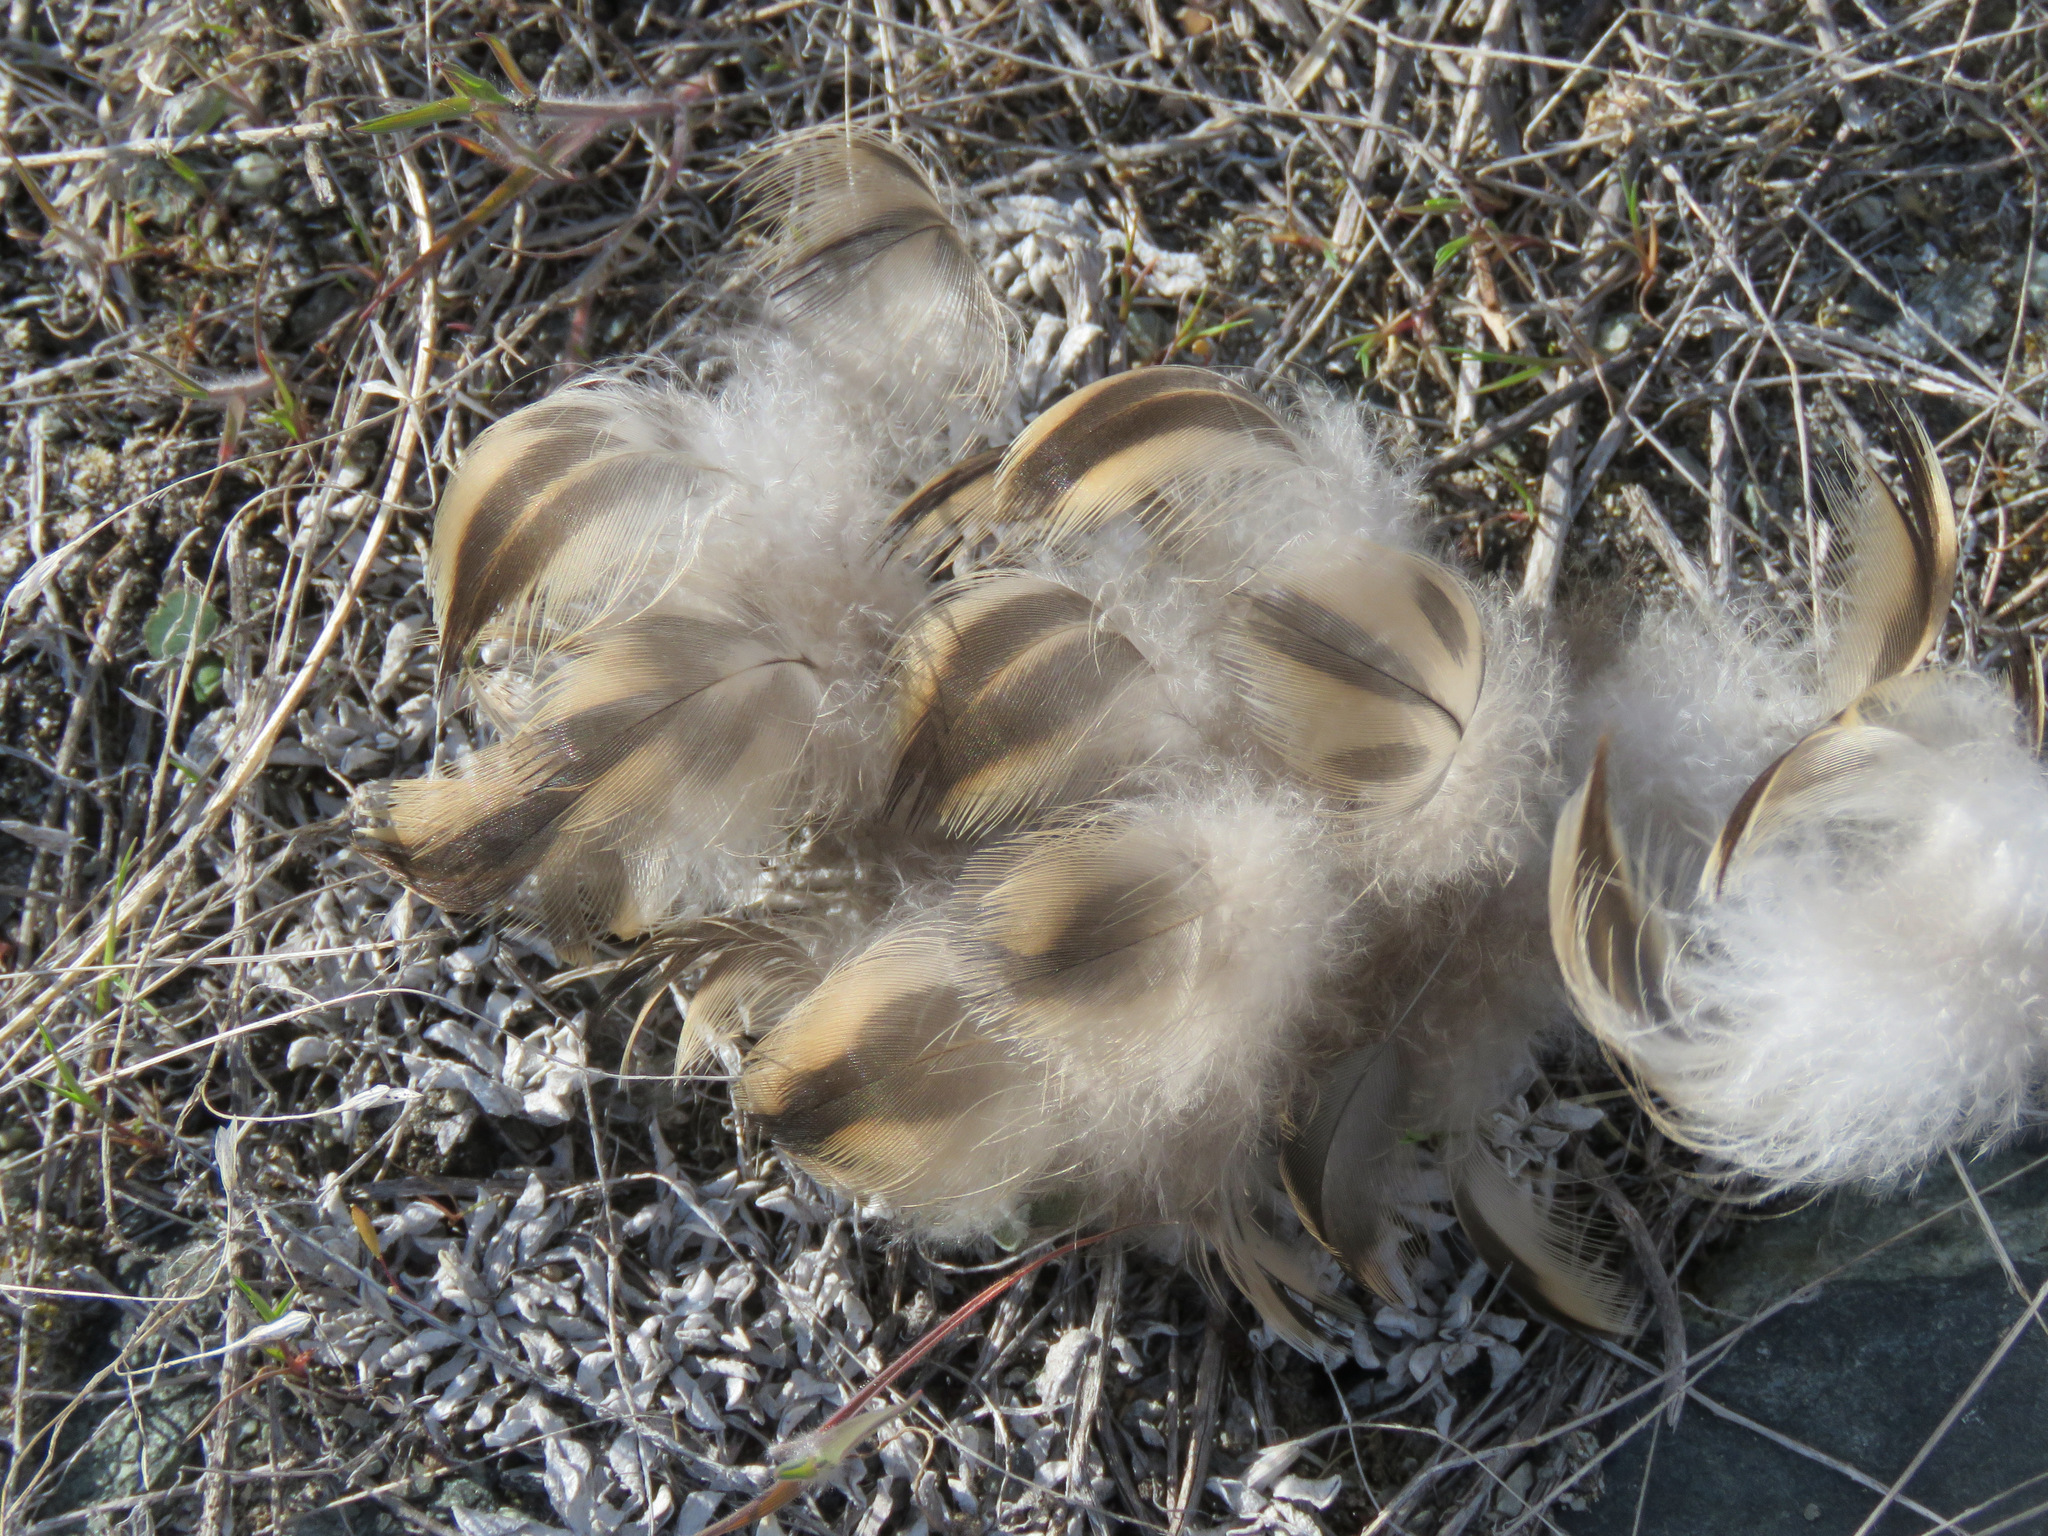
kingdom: Animalia
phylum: Chordata
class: Aves
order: Anseriformes
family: Anatidae
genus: Anas
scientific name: Anas platyrhynchos
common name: Mallard
